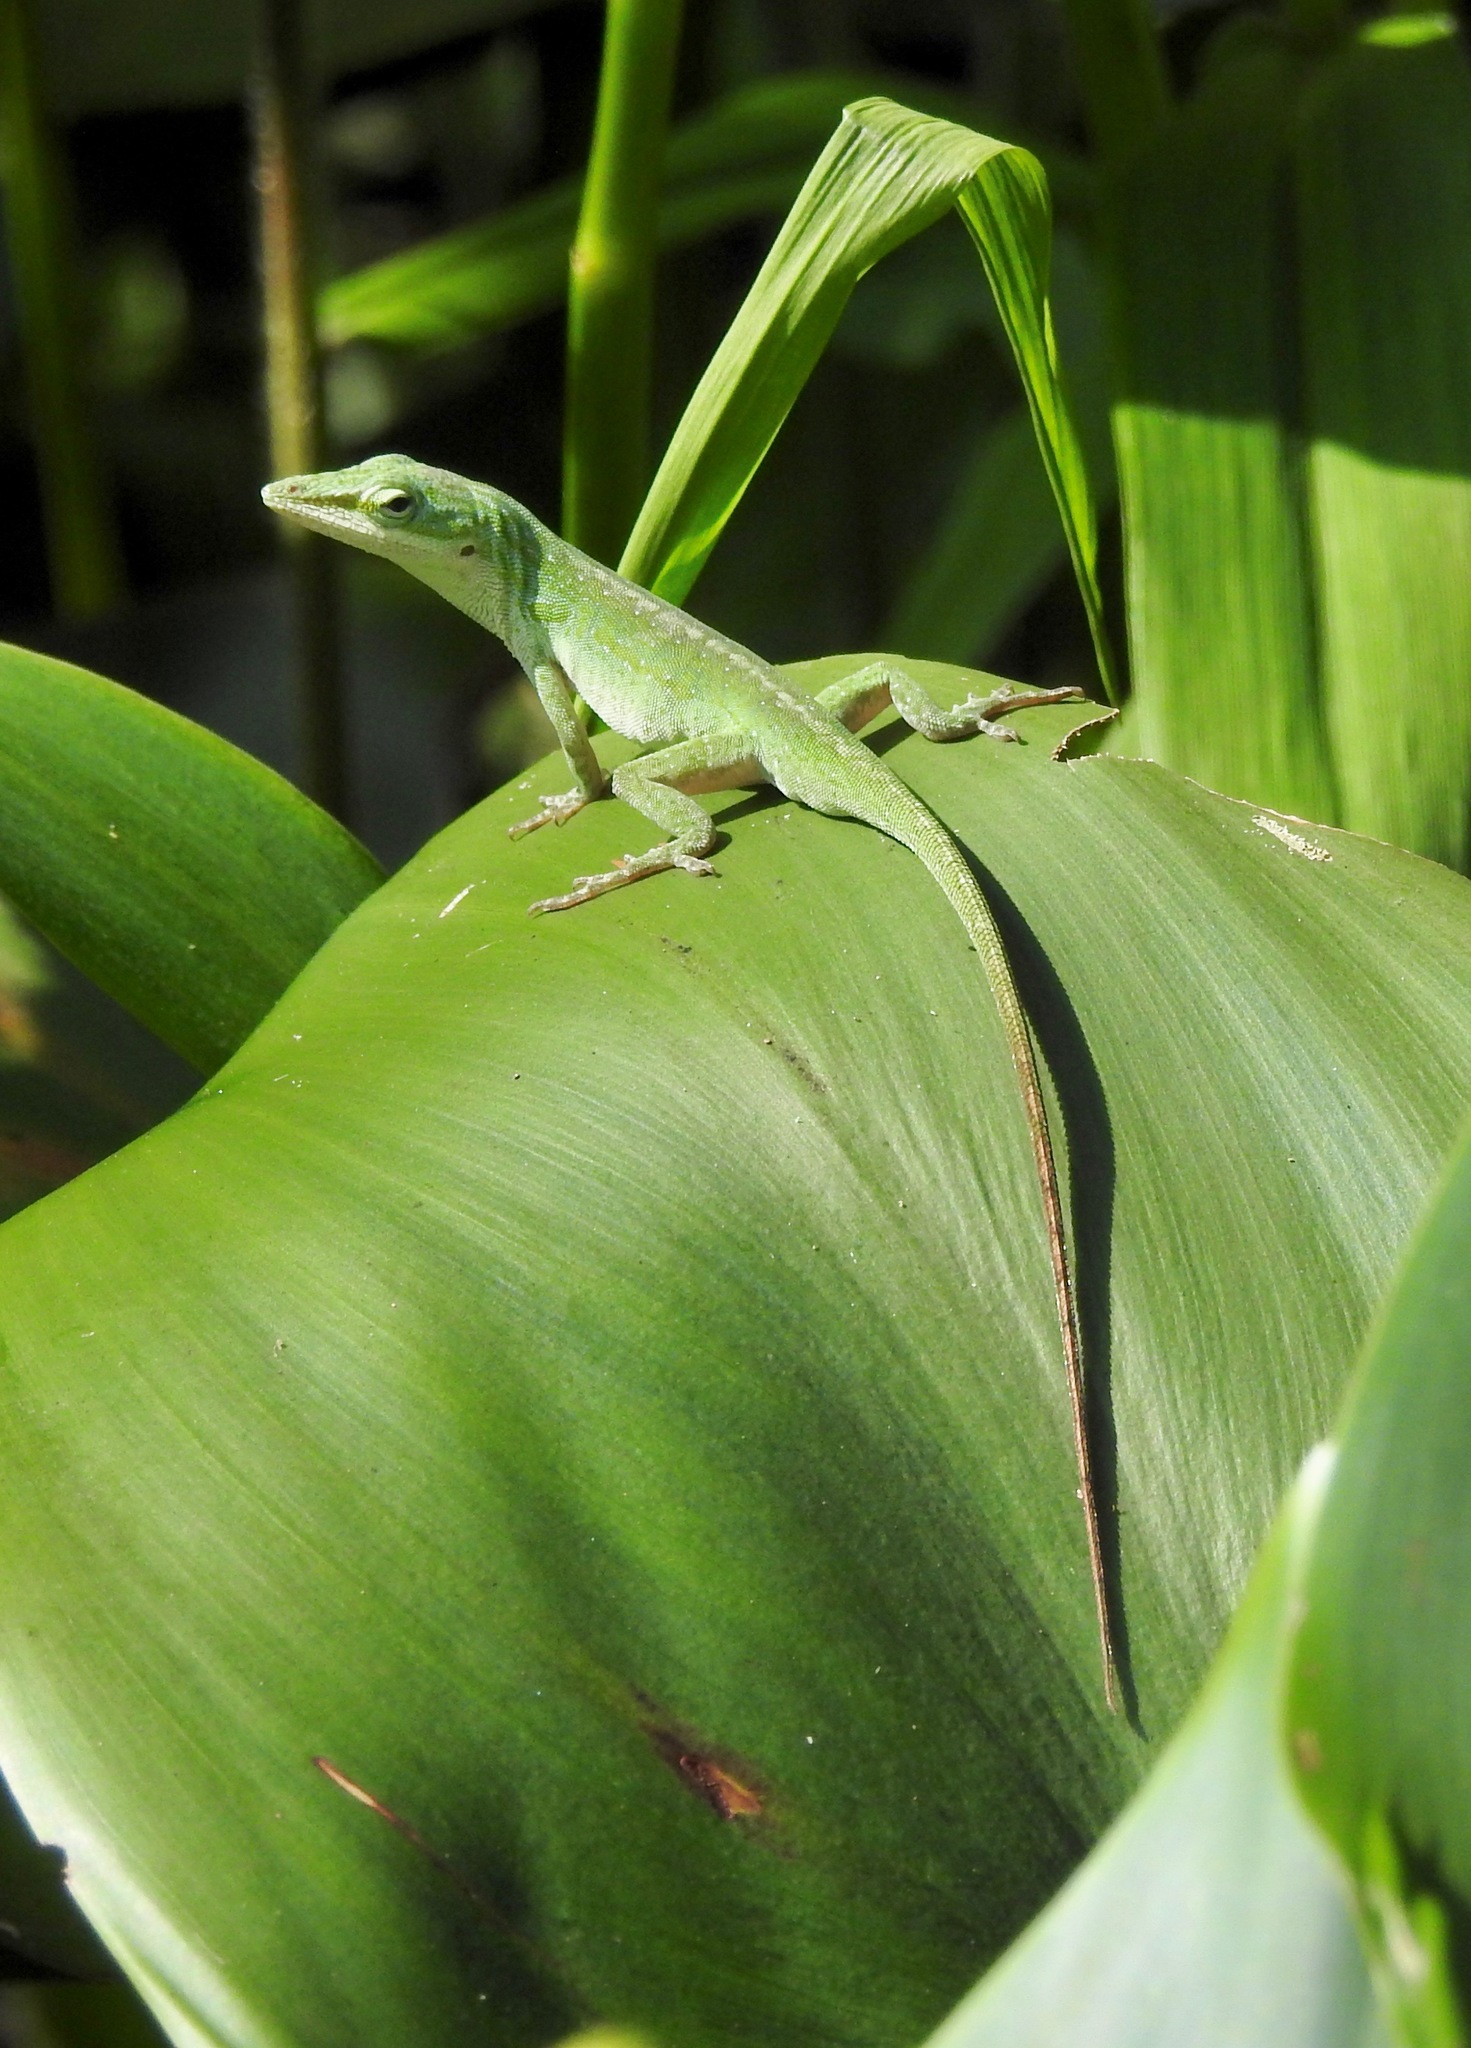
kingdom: Animalia
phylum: Chordata
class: Squamata
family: Dactyloidae
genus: Anolis
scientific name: Anolis carolinensis
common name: Green anole
